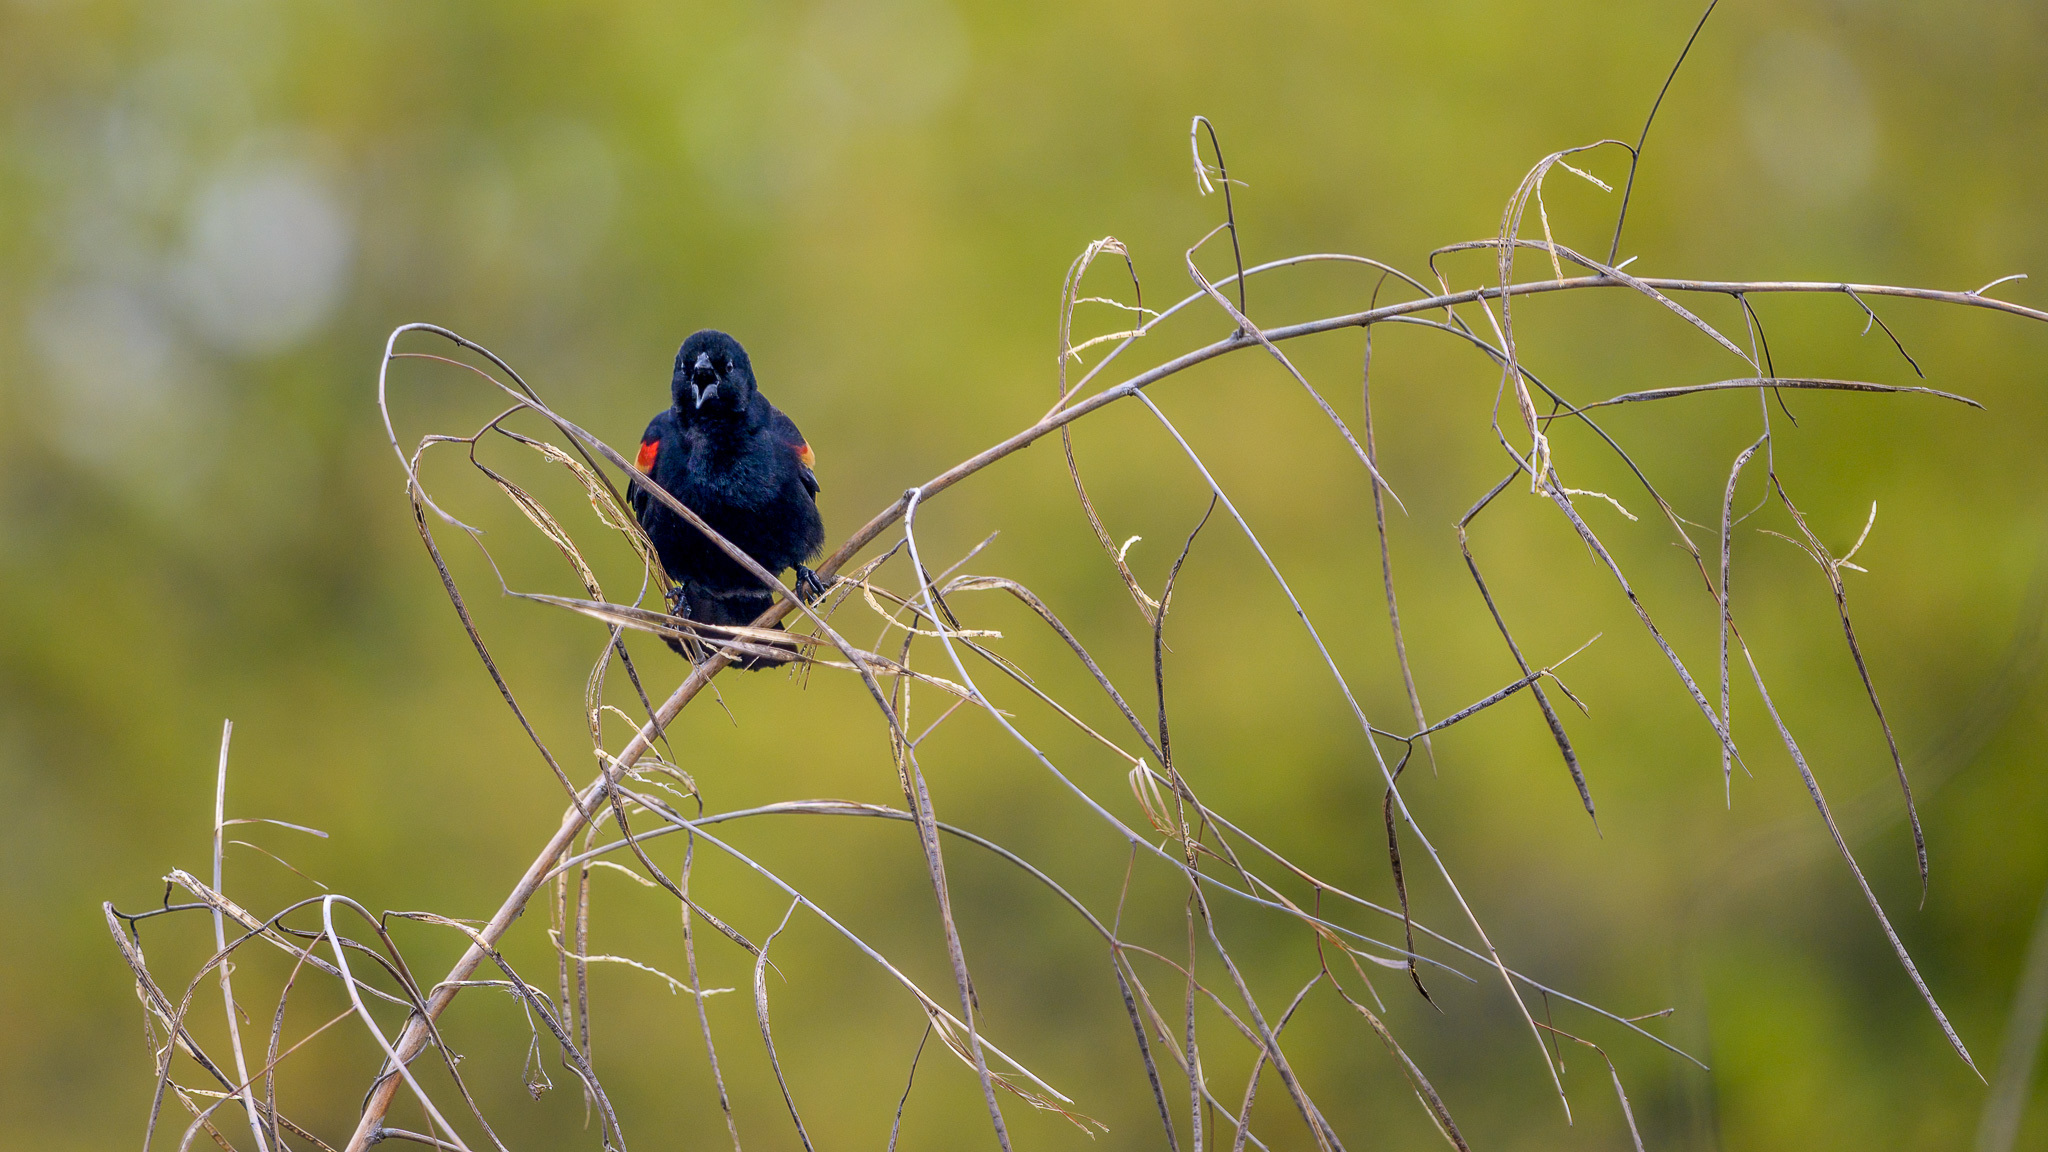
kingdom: Animalia
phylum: Chordata
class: Aves
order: Passeriformes
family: Icteridae
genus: Agelaius
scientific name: Agelaius phoeniceus
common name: Red-winged blackbird
